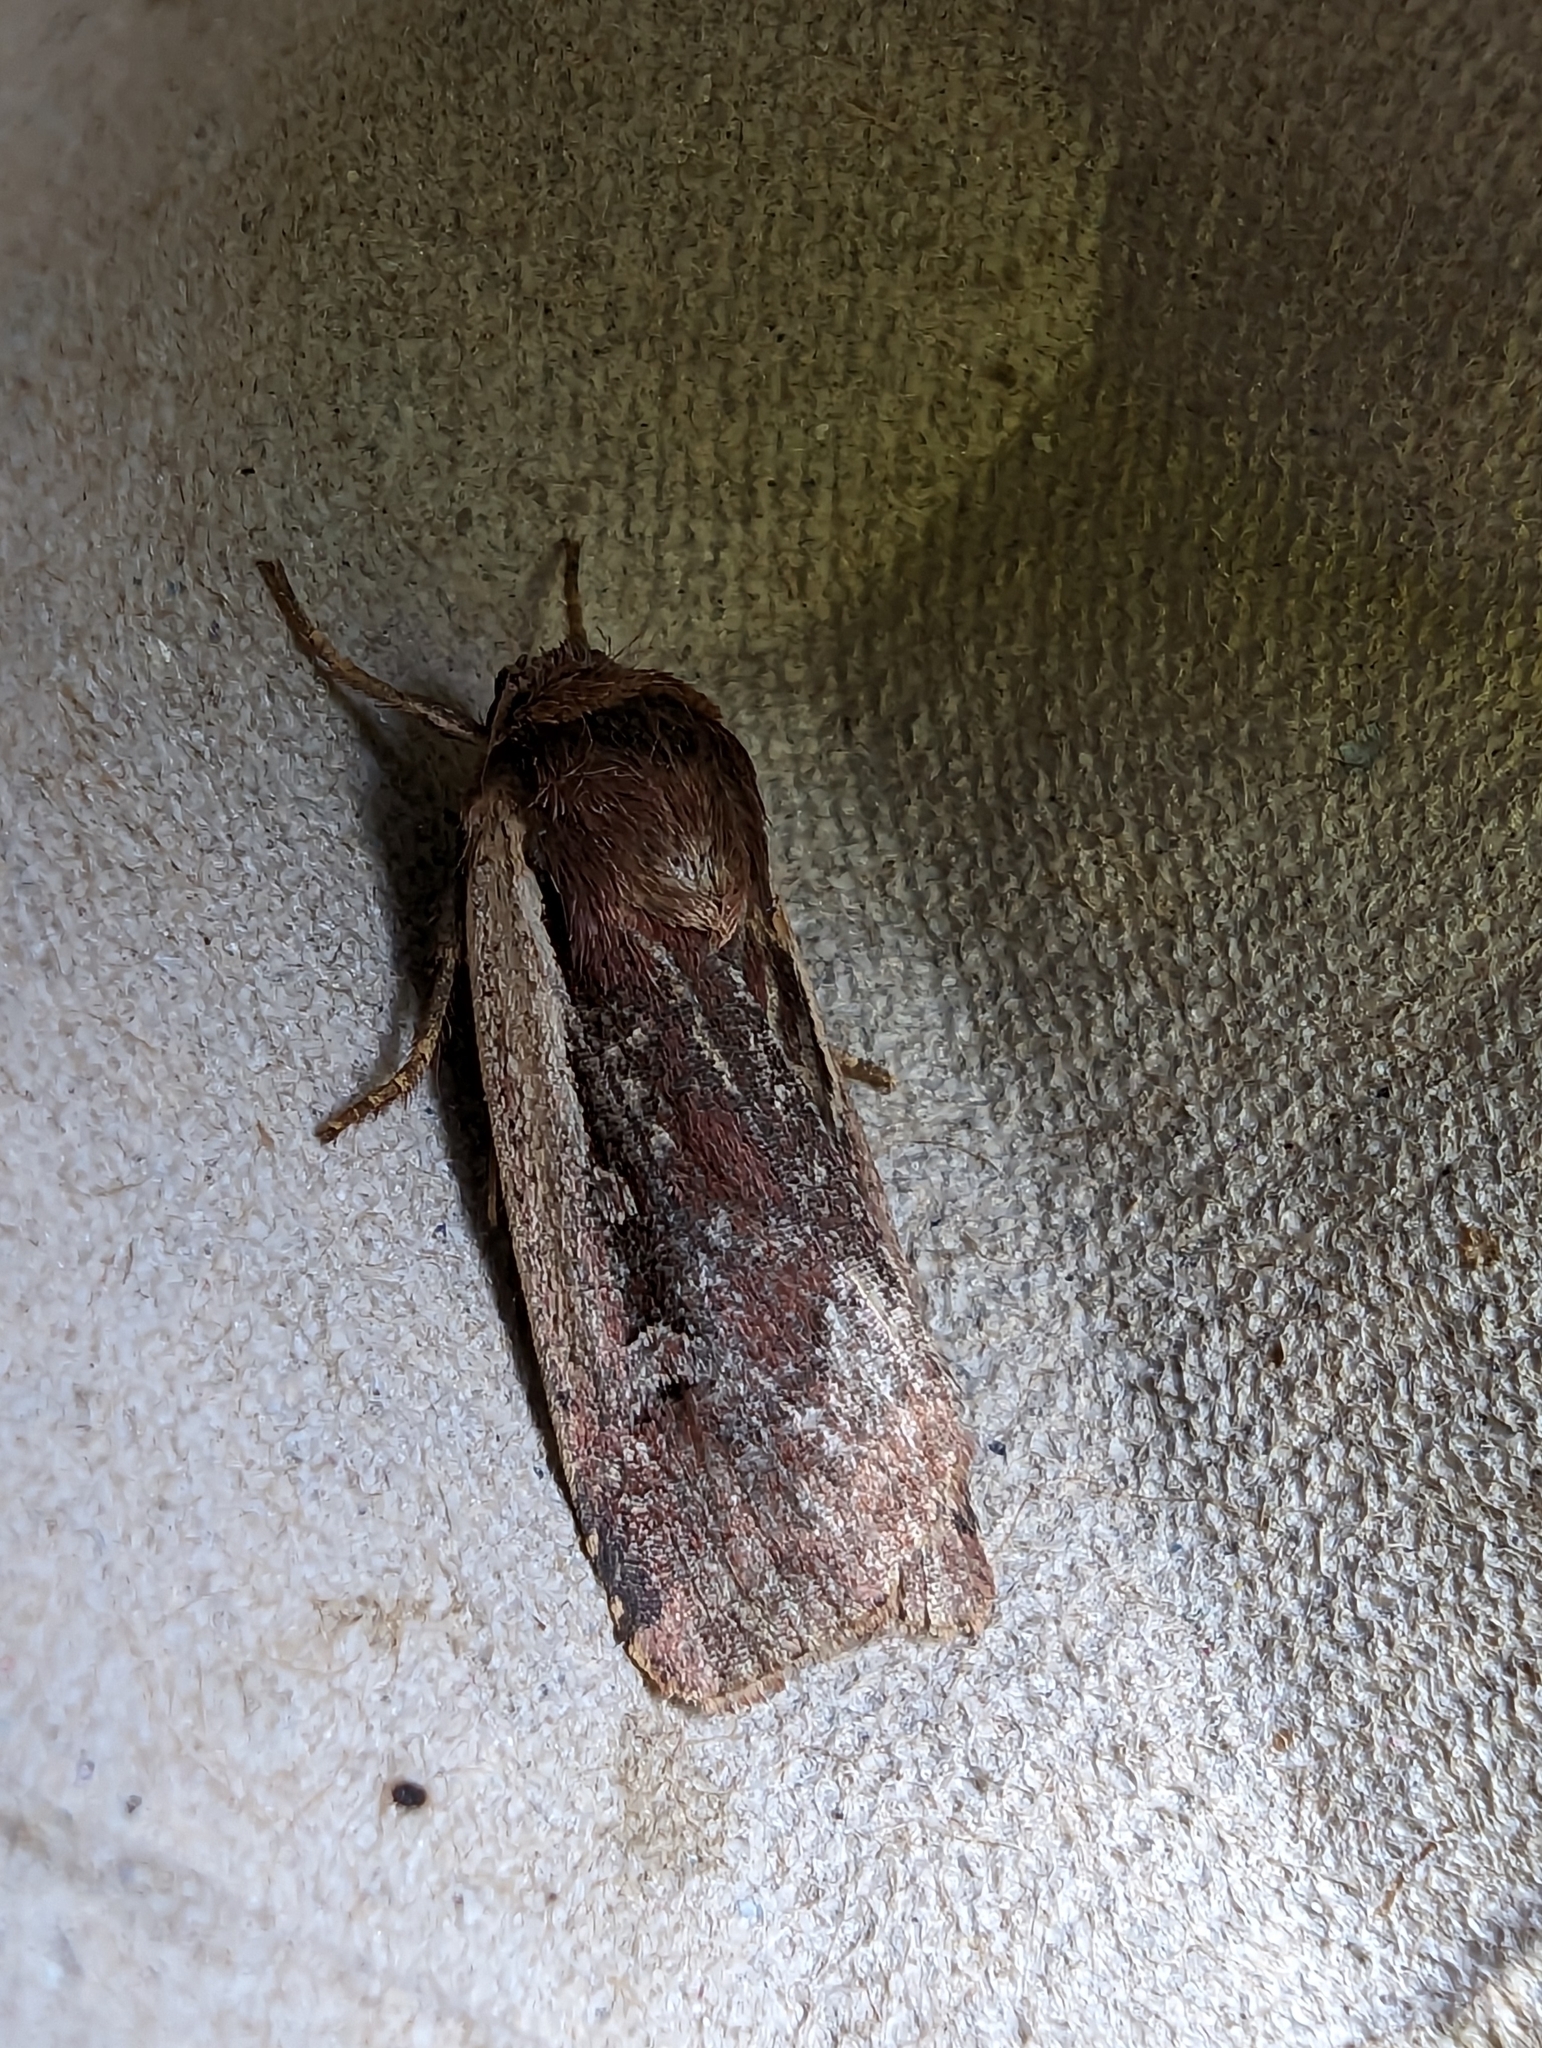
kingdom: Animalia
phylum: Arthropoda
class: Insecta
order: Lepidoptera
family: Noctuidae
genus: Ochropleura
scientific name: Ochropleura plecta
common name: Flame shoulder
